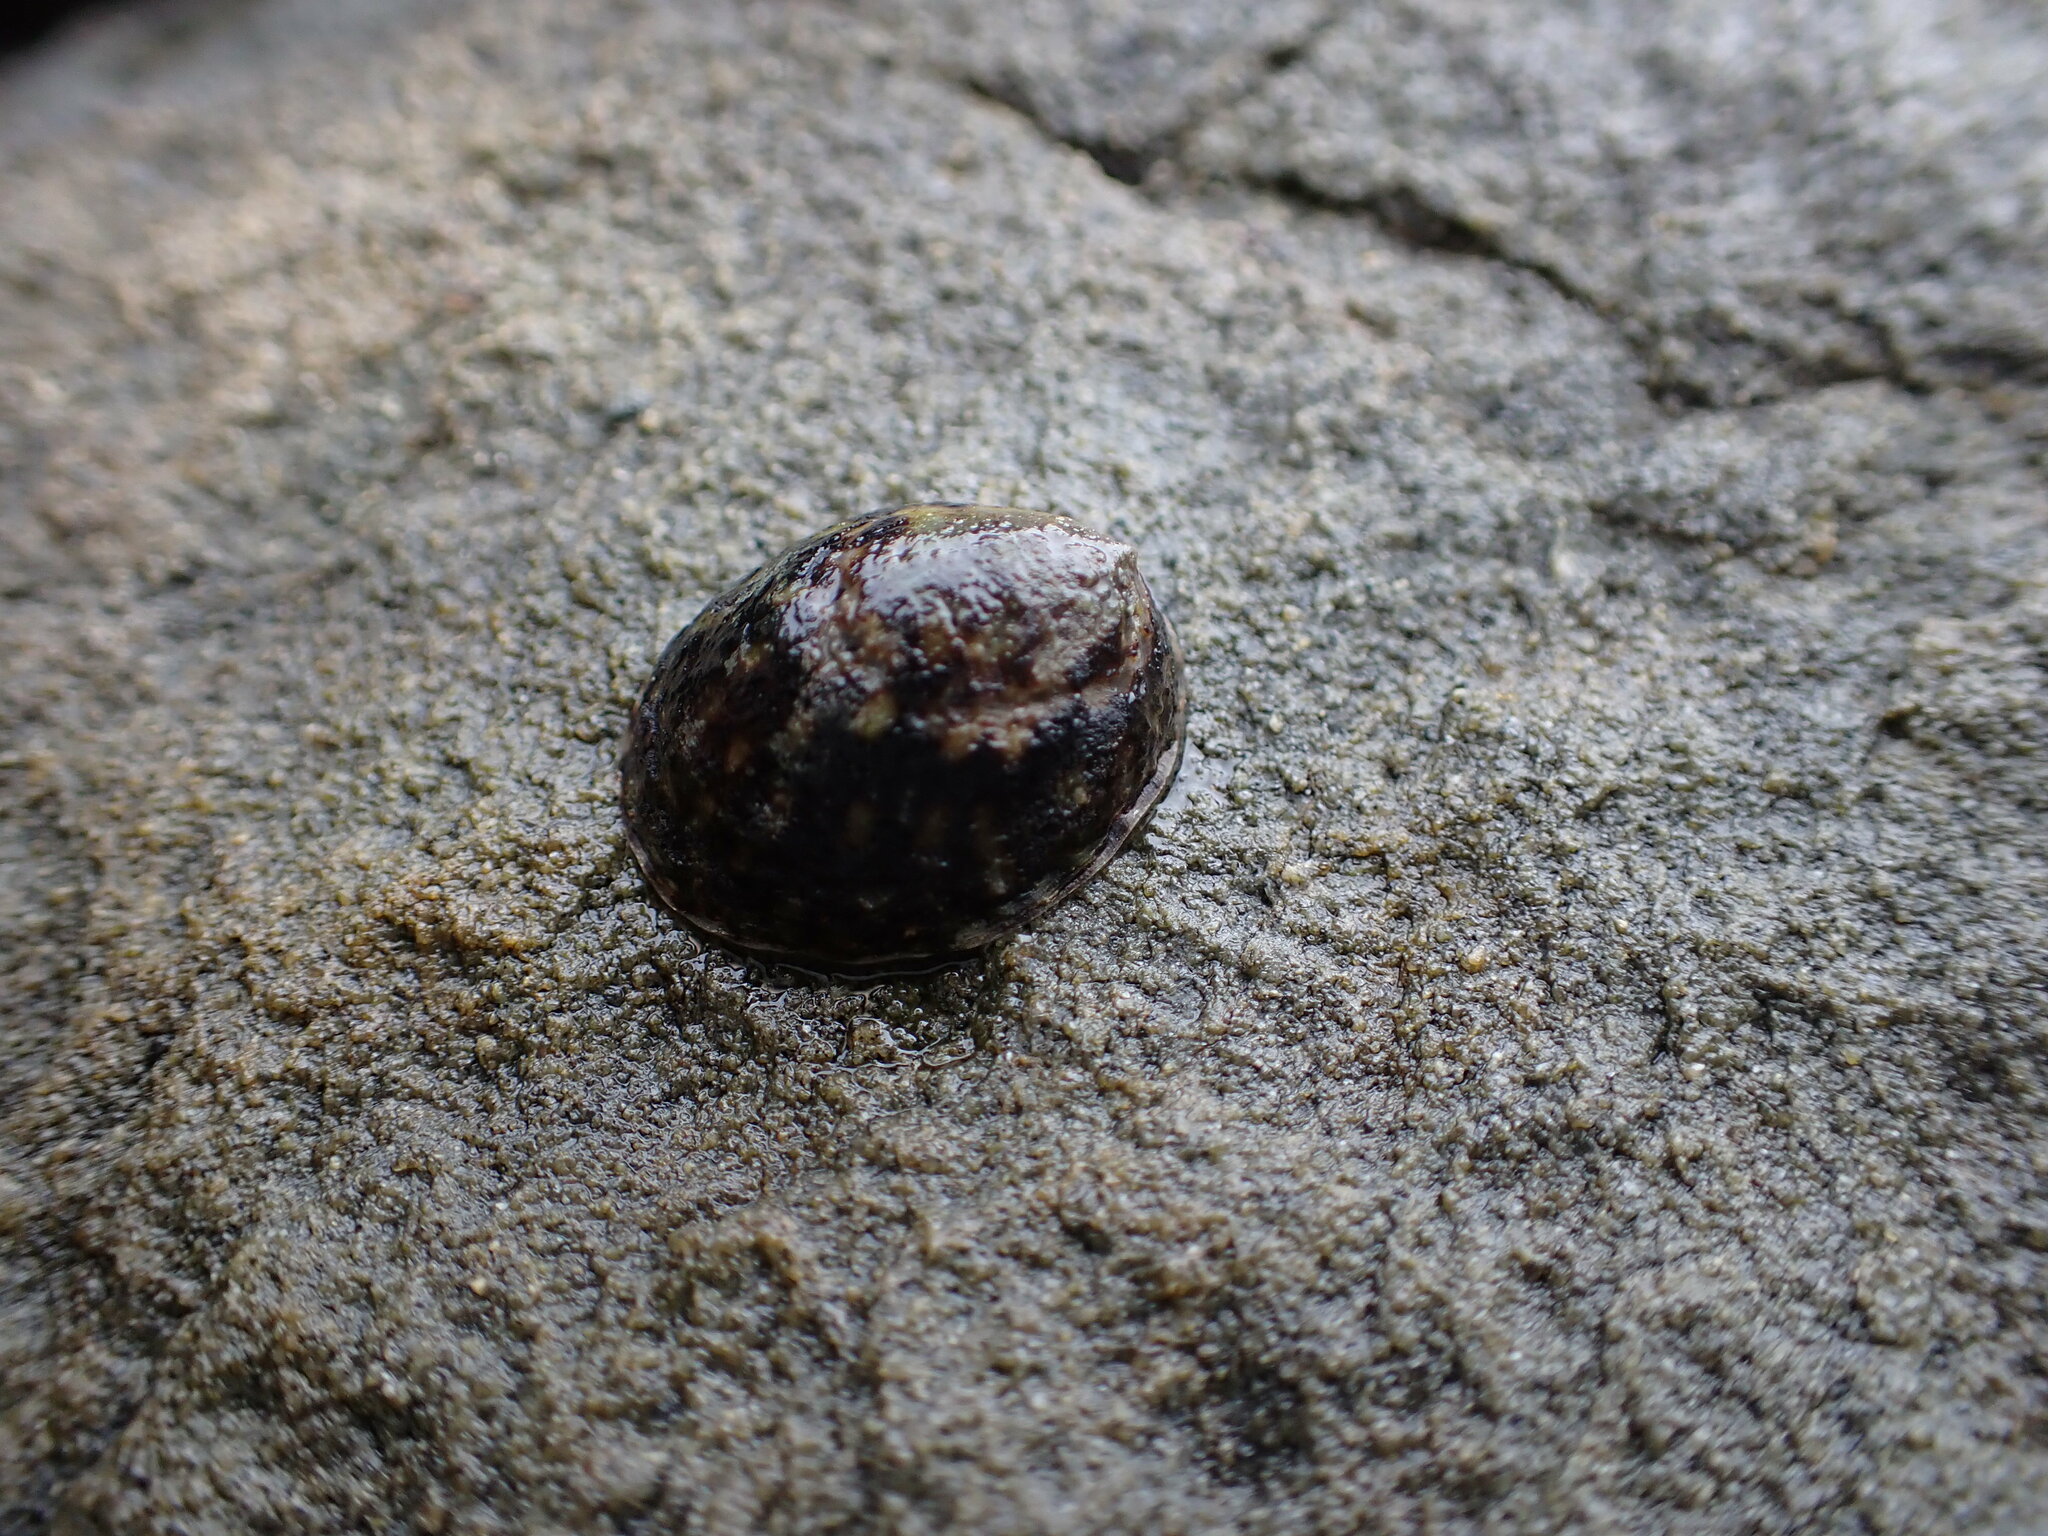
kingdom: Animalia
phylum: Mollusca
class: Gastropoda
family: Lottiidae
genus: Notoacmea
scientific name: Notoacmea pileopsis
